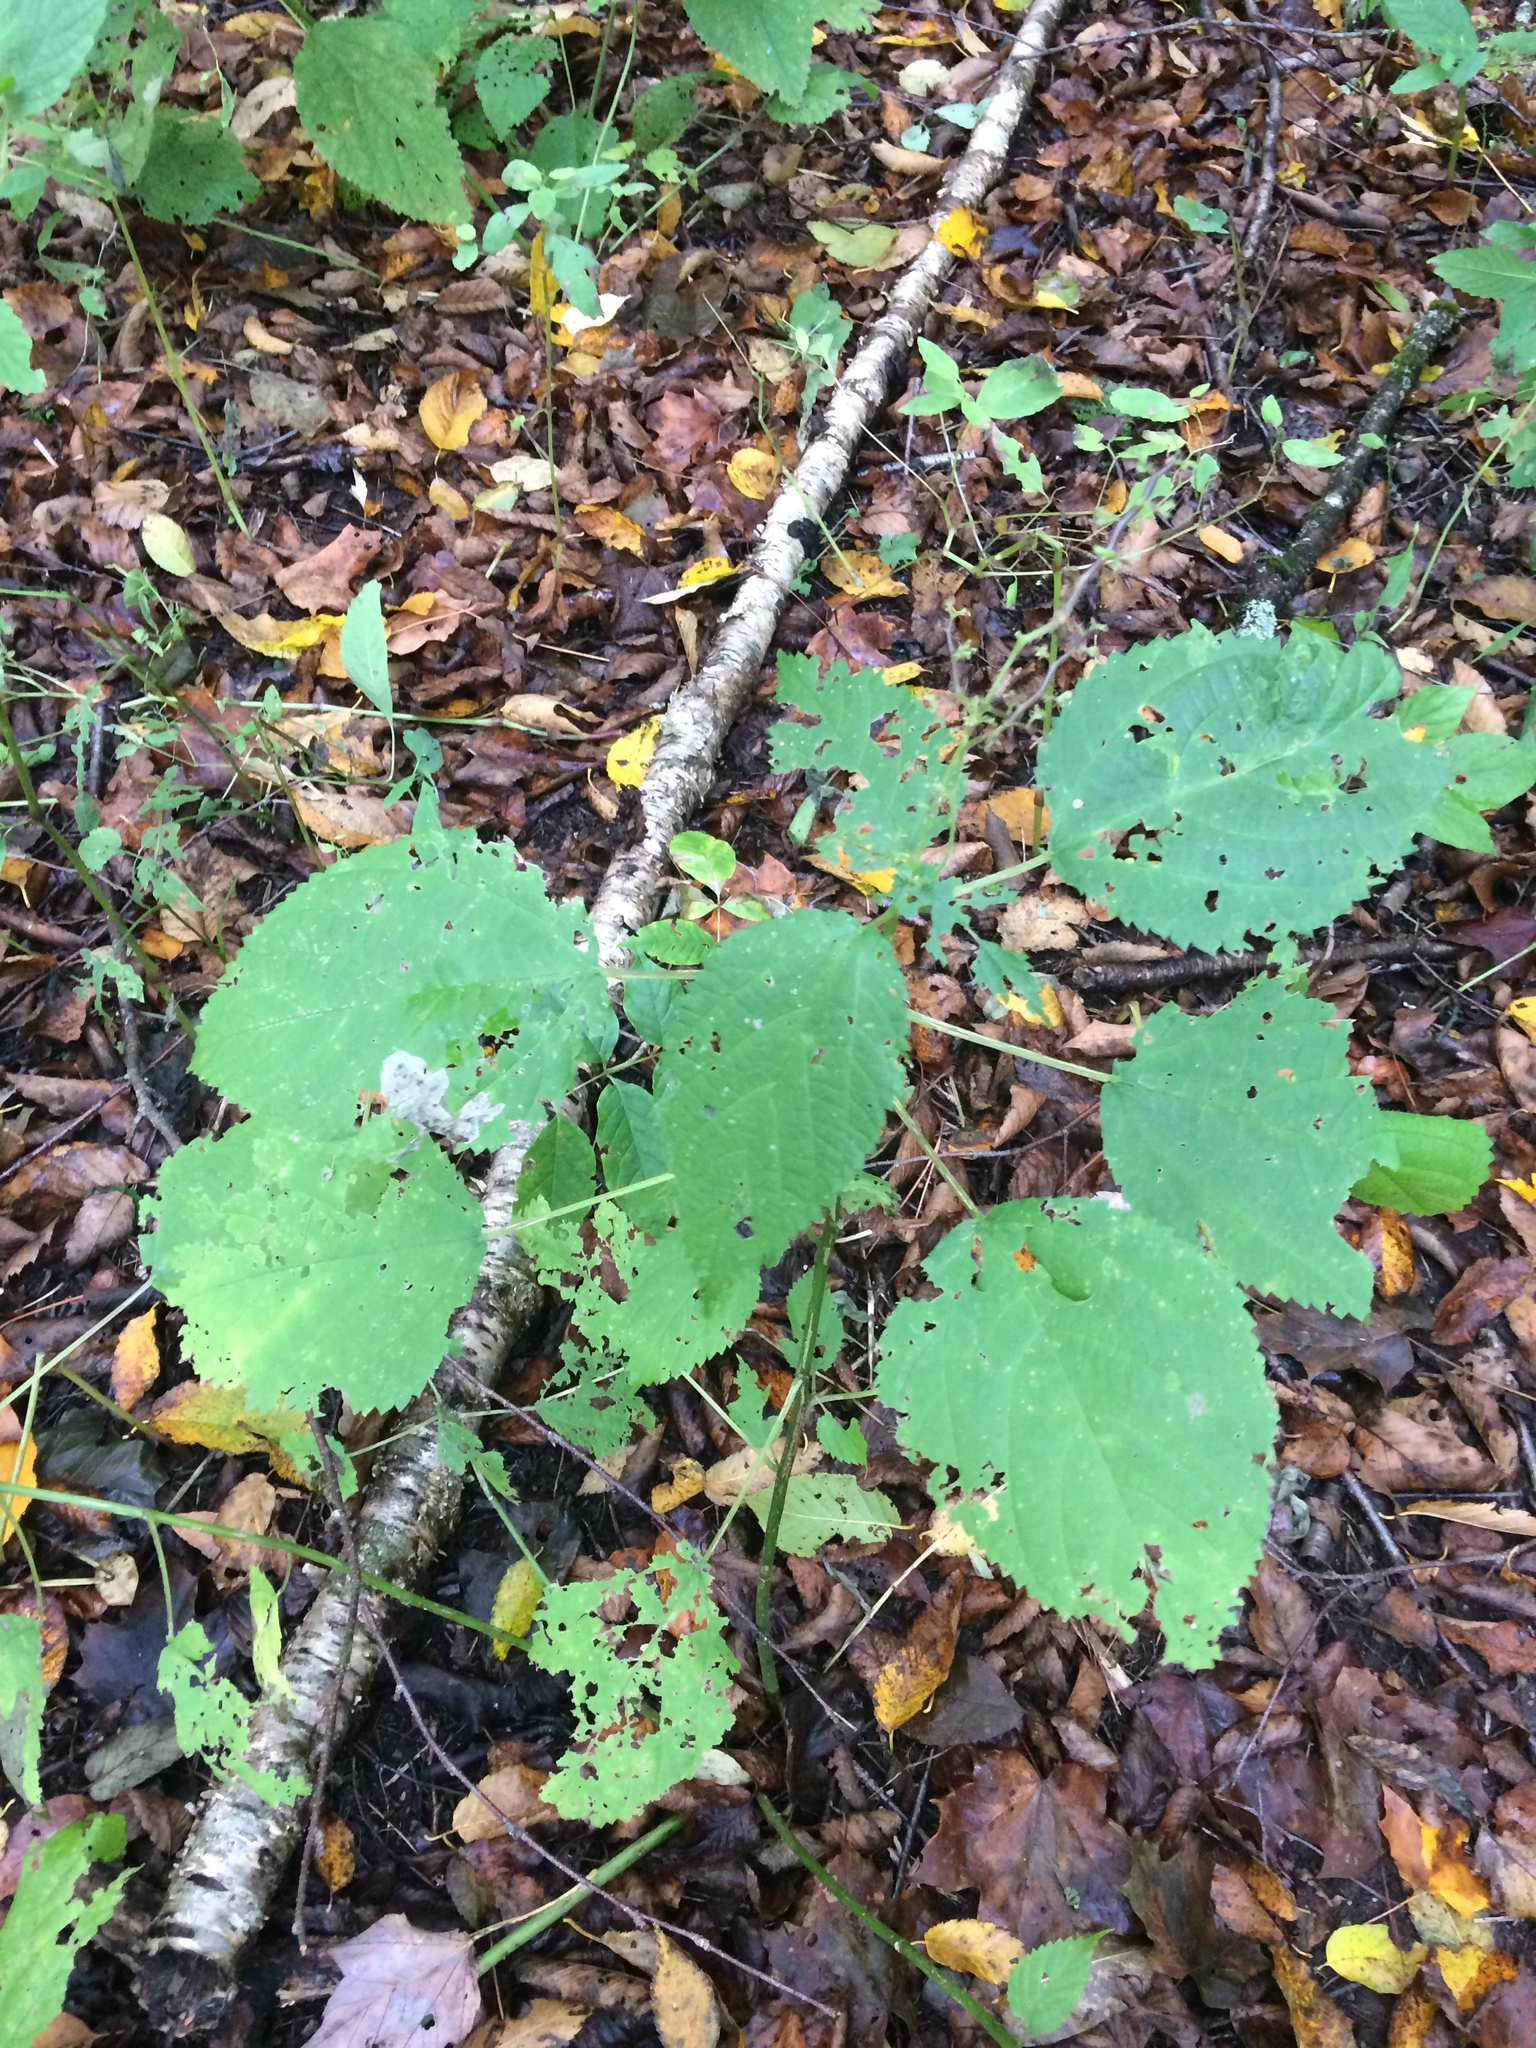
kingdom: Plantae
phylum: Tracheophyta
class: Magnoliopsida
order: Rosales
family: Urticaceae
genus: Laportea
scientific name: Laportea canadensis
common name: Canada nettle
